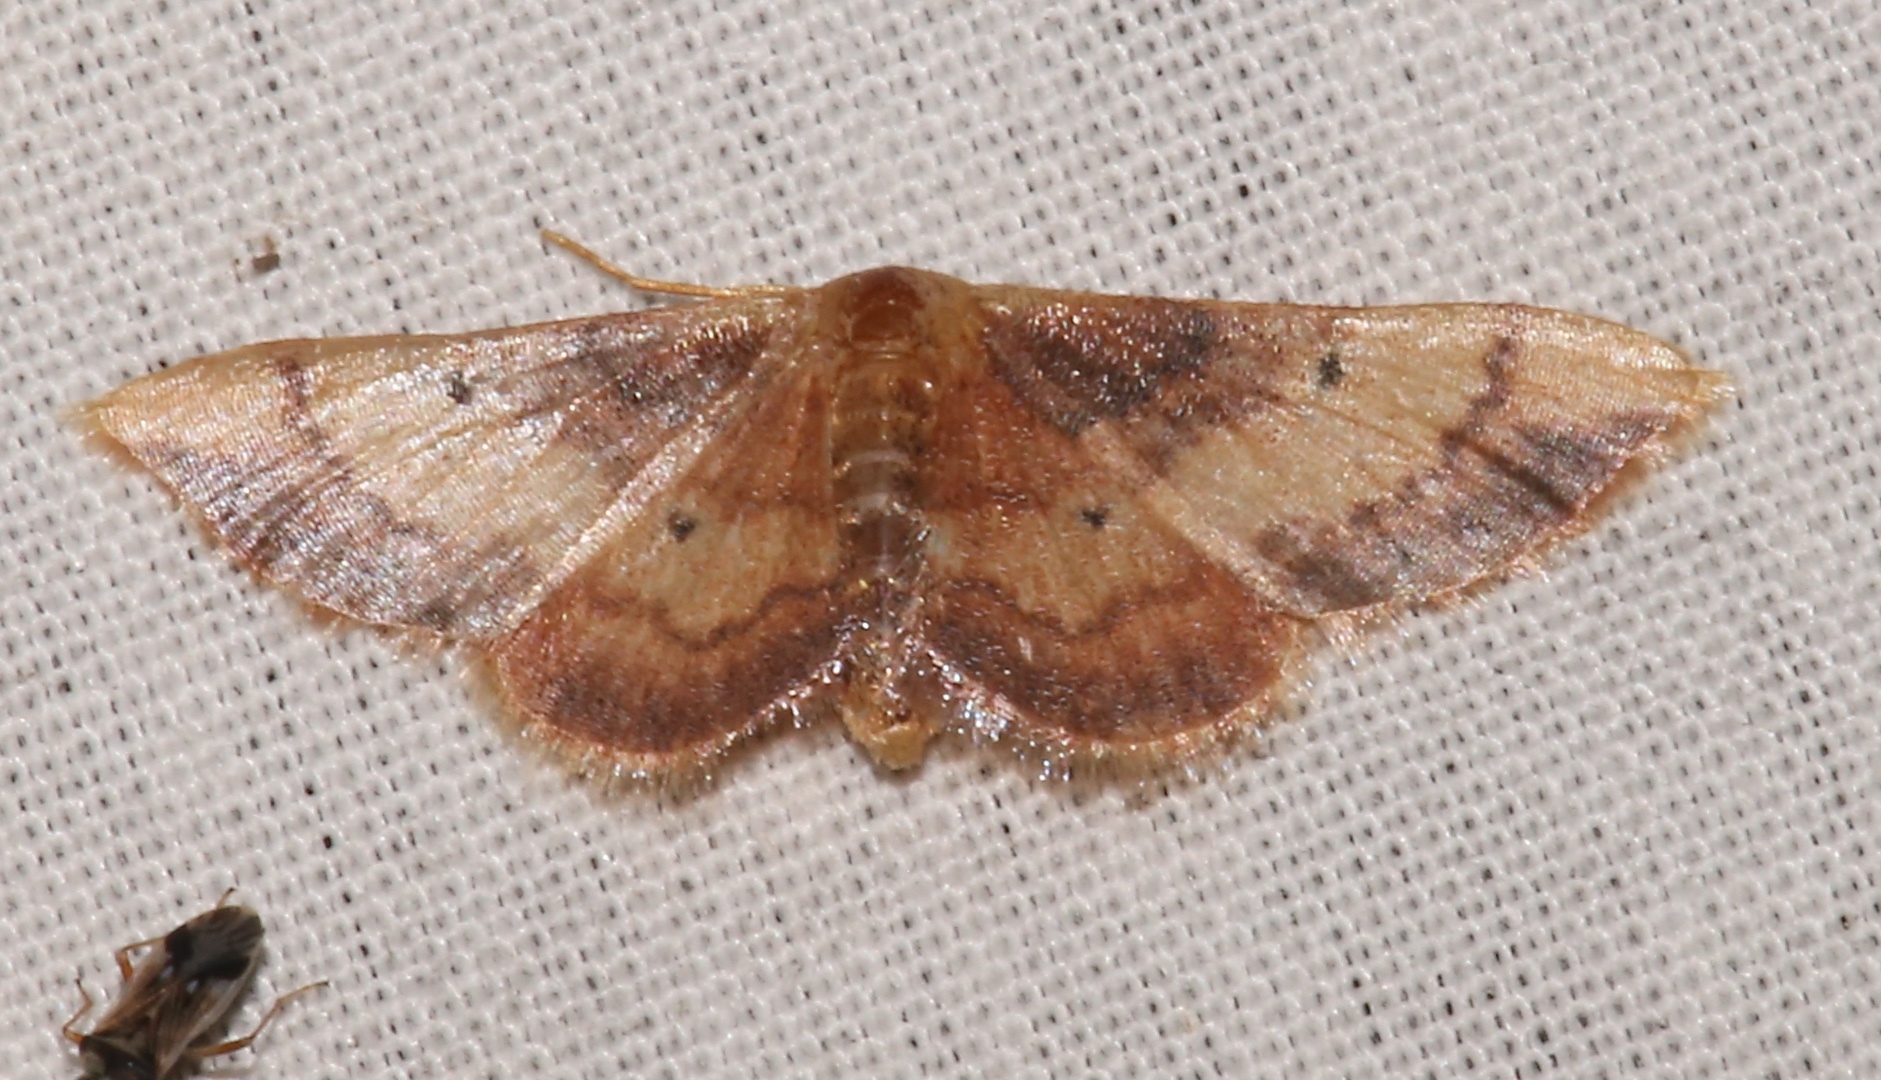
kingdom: Animalia
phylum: Arthropoda
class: Insecta
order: Lepidoptera
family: Geometridae
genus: Idaea
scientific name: Idaea demissaria
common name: Red-bordered wave
